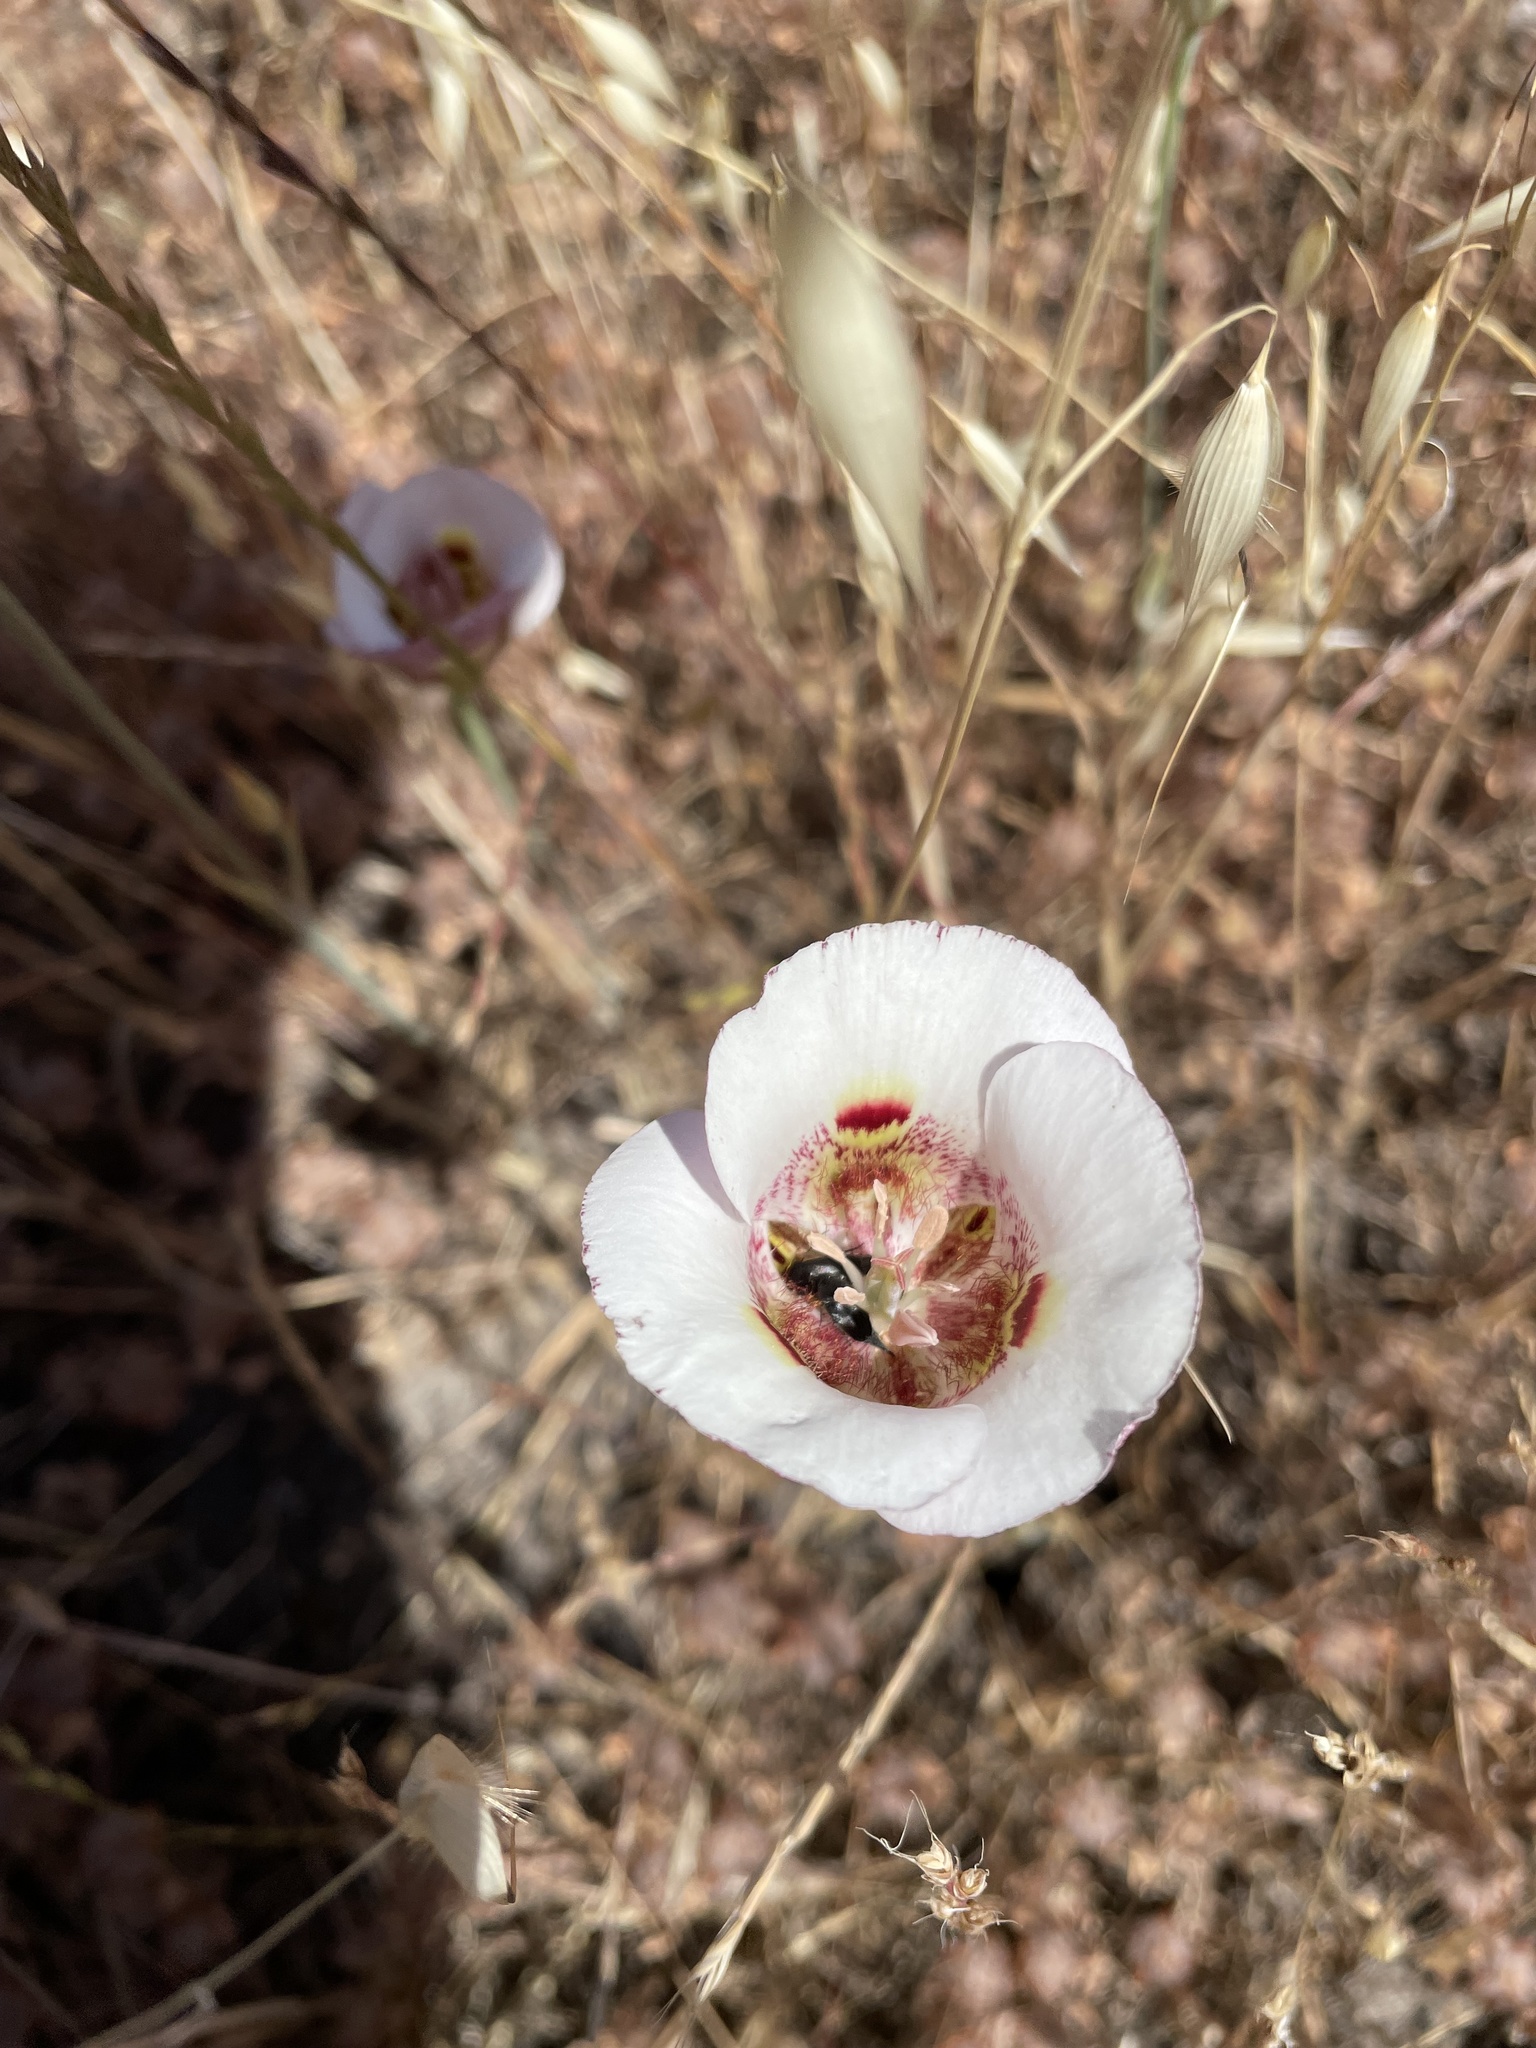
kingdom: Plantae
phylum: Tracheophyta
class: Liliopsida
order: Liliales
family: Liliaceae
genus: Calochortus
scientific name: Calochortus argillosus
